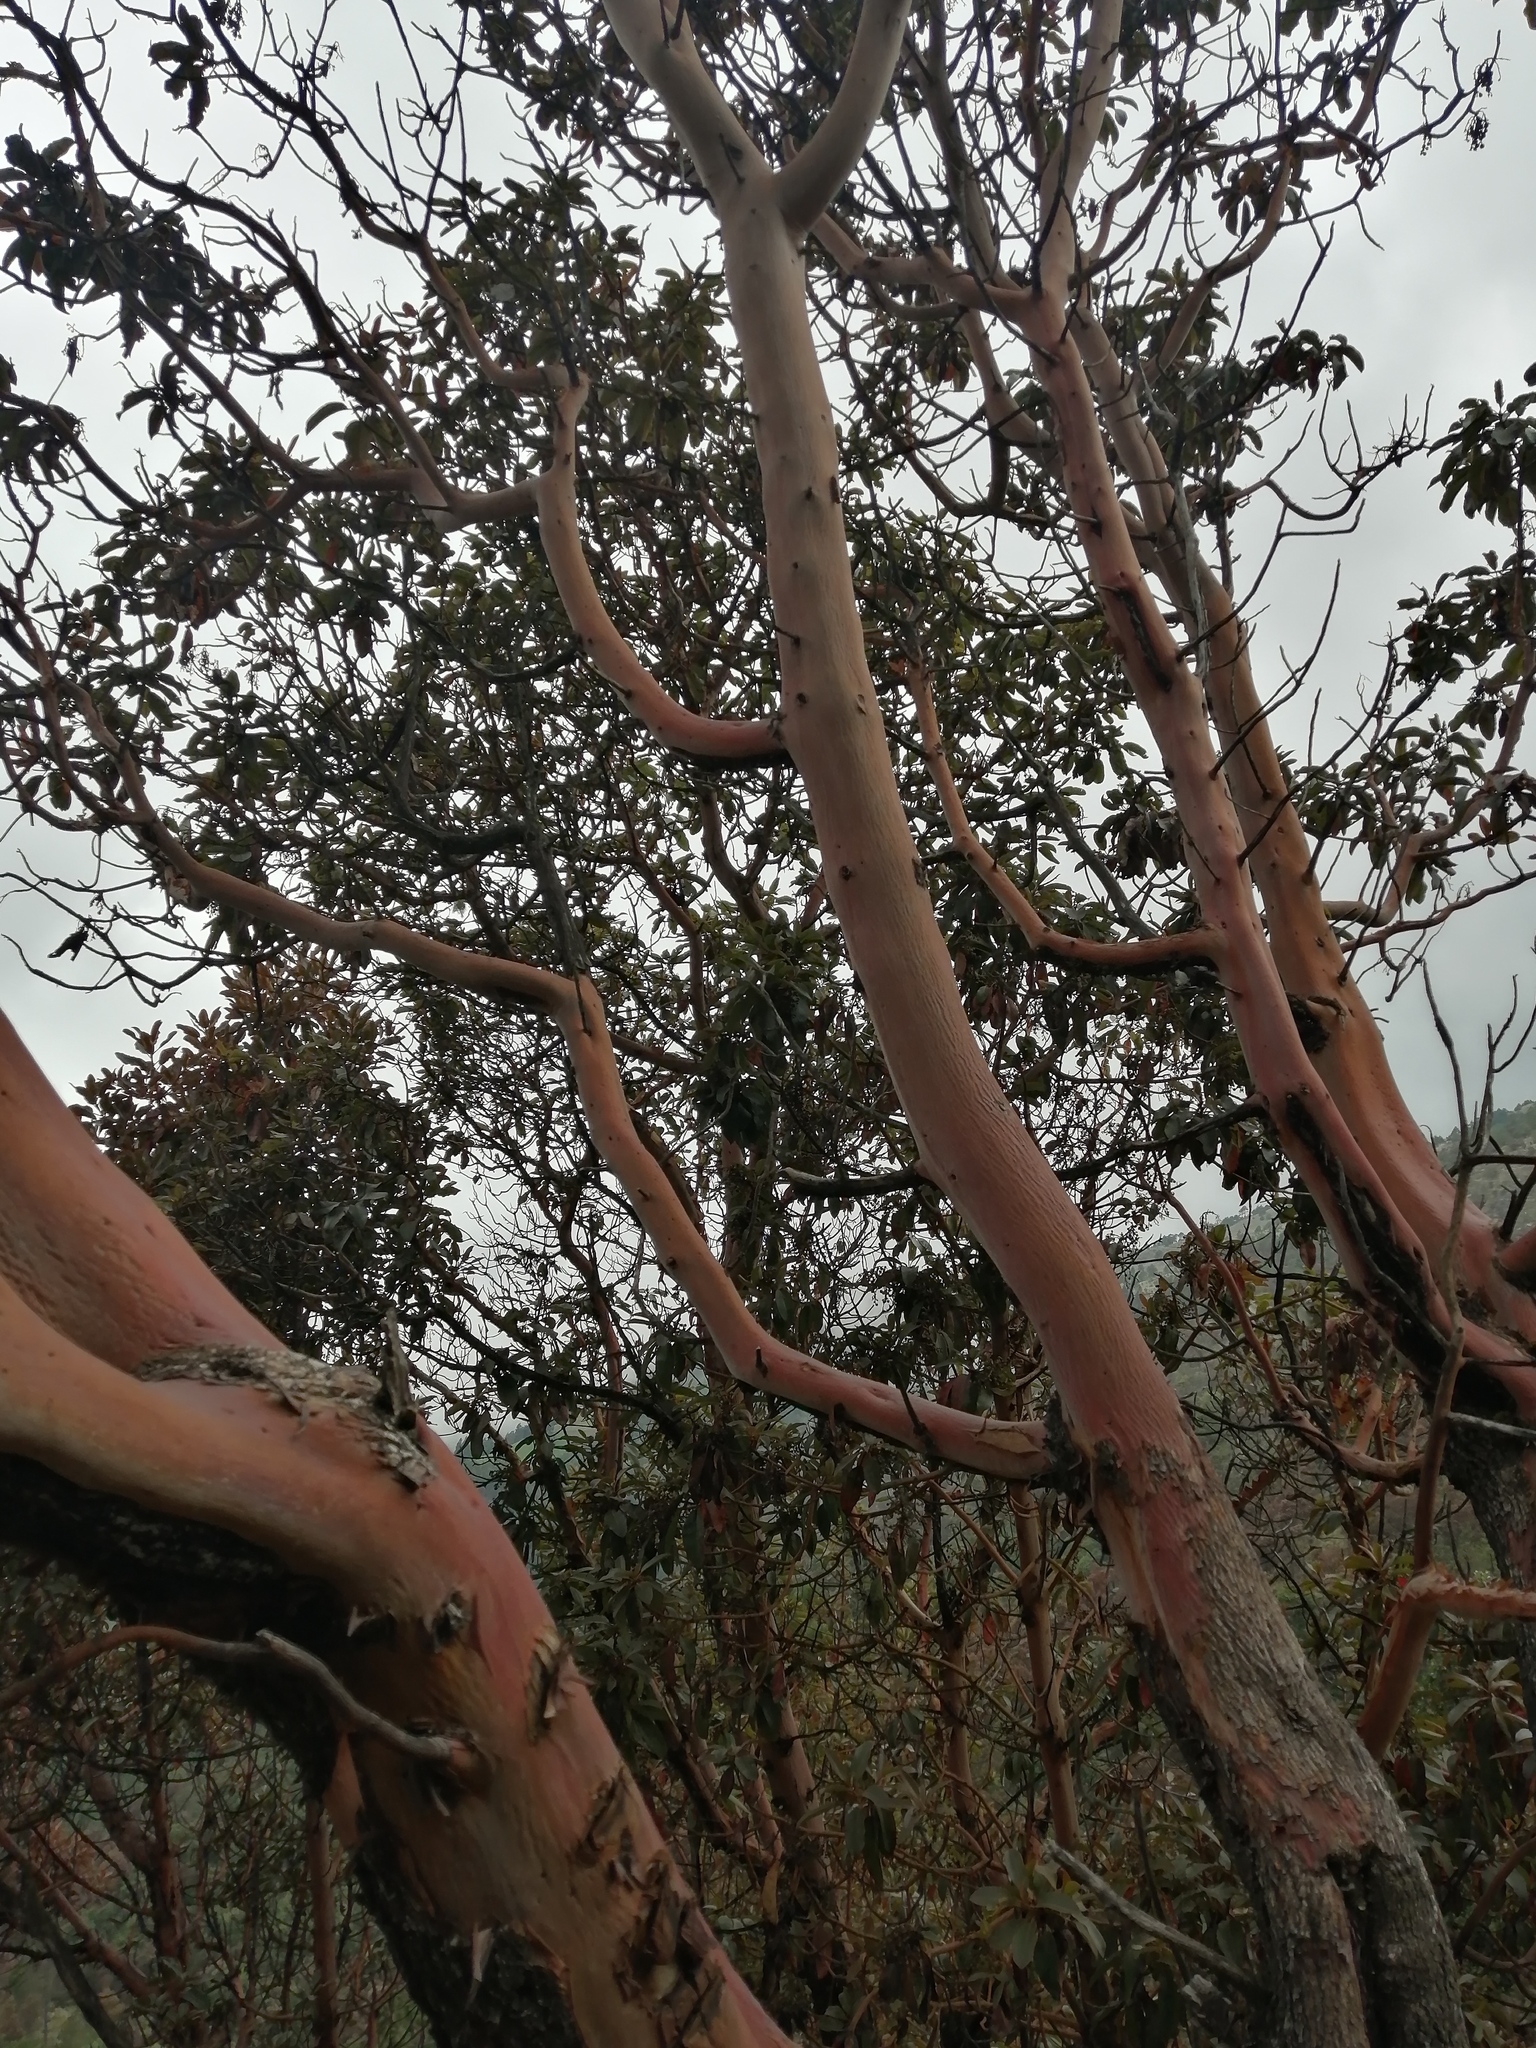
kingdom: Plantae
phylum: Tracheophyta
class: Magnoliopsida
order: Ericales
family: Ericaceae
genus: Arbutus
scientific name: Arbutus xalapensis
